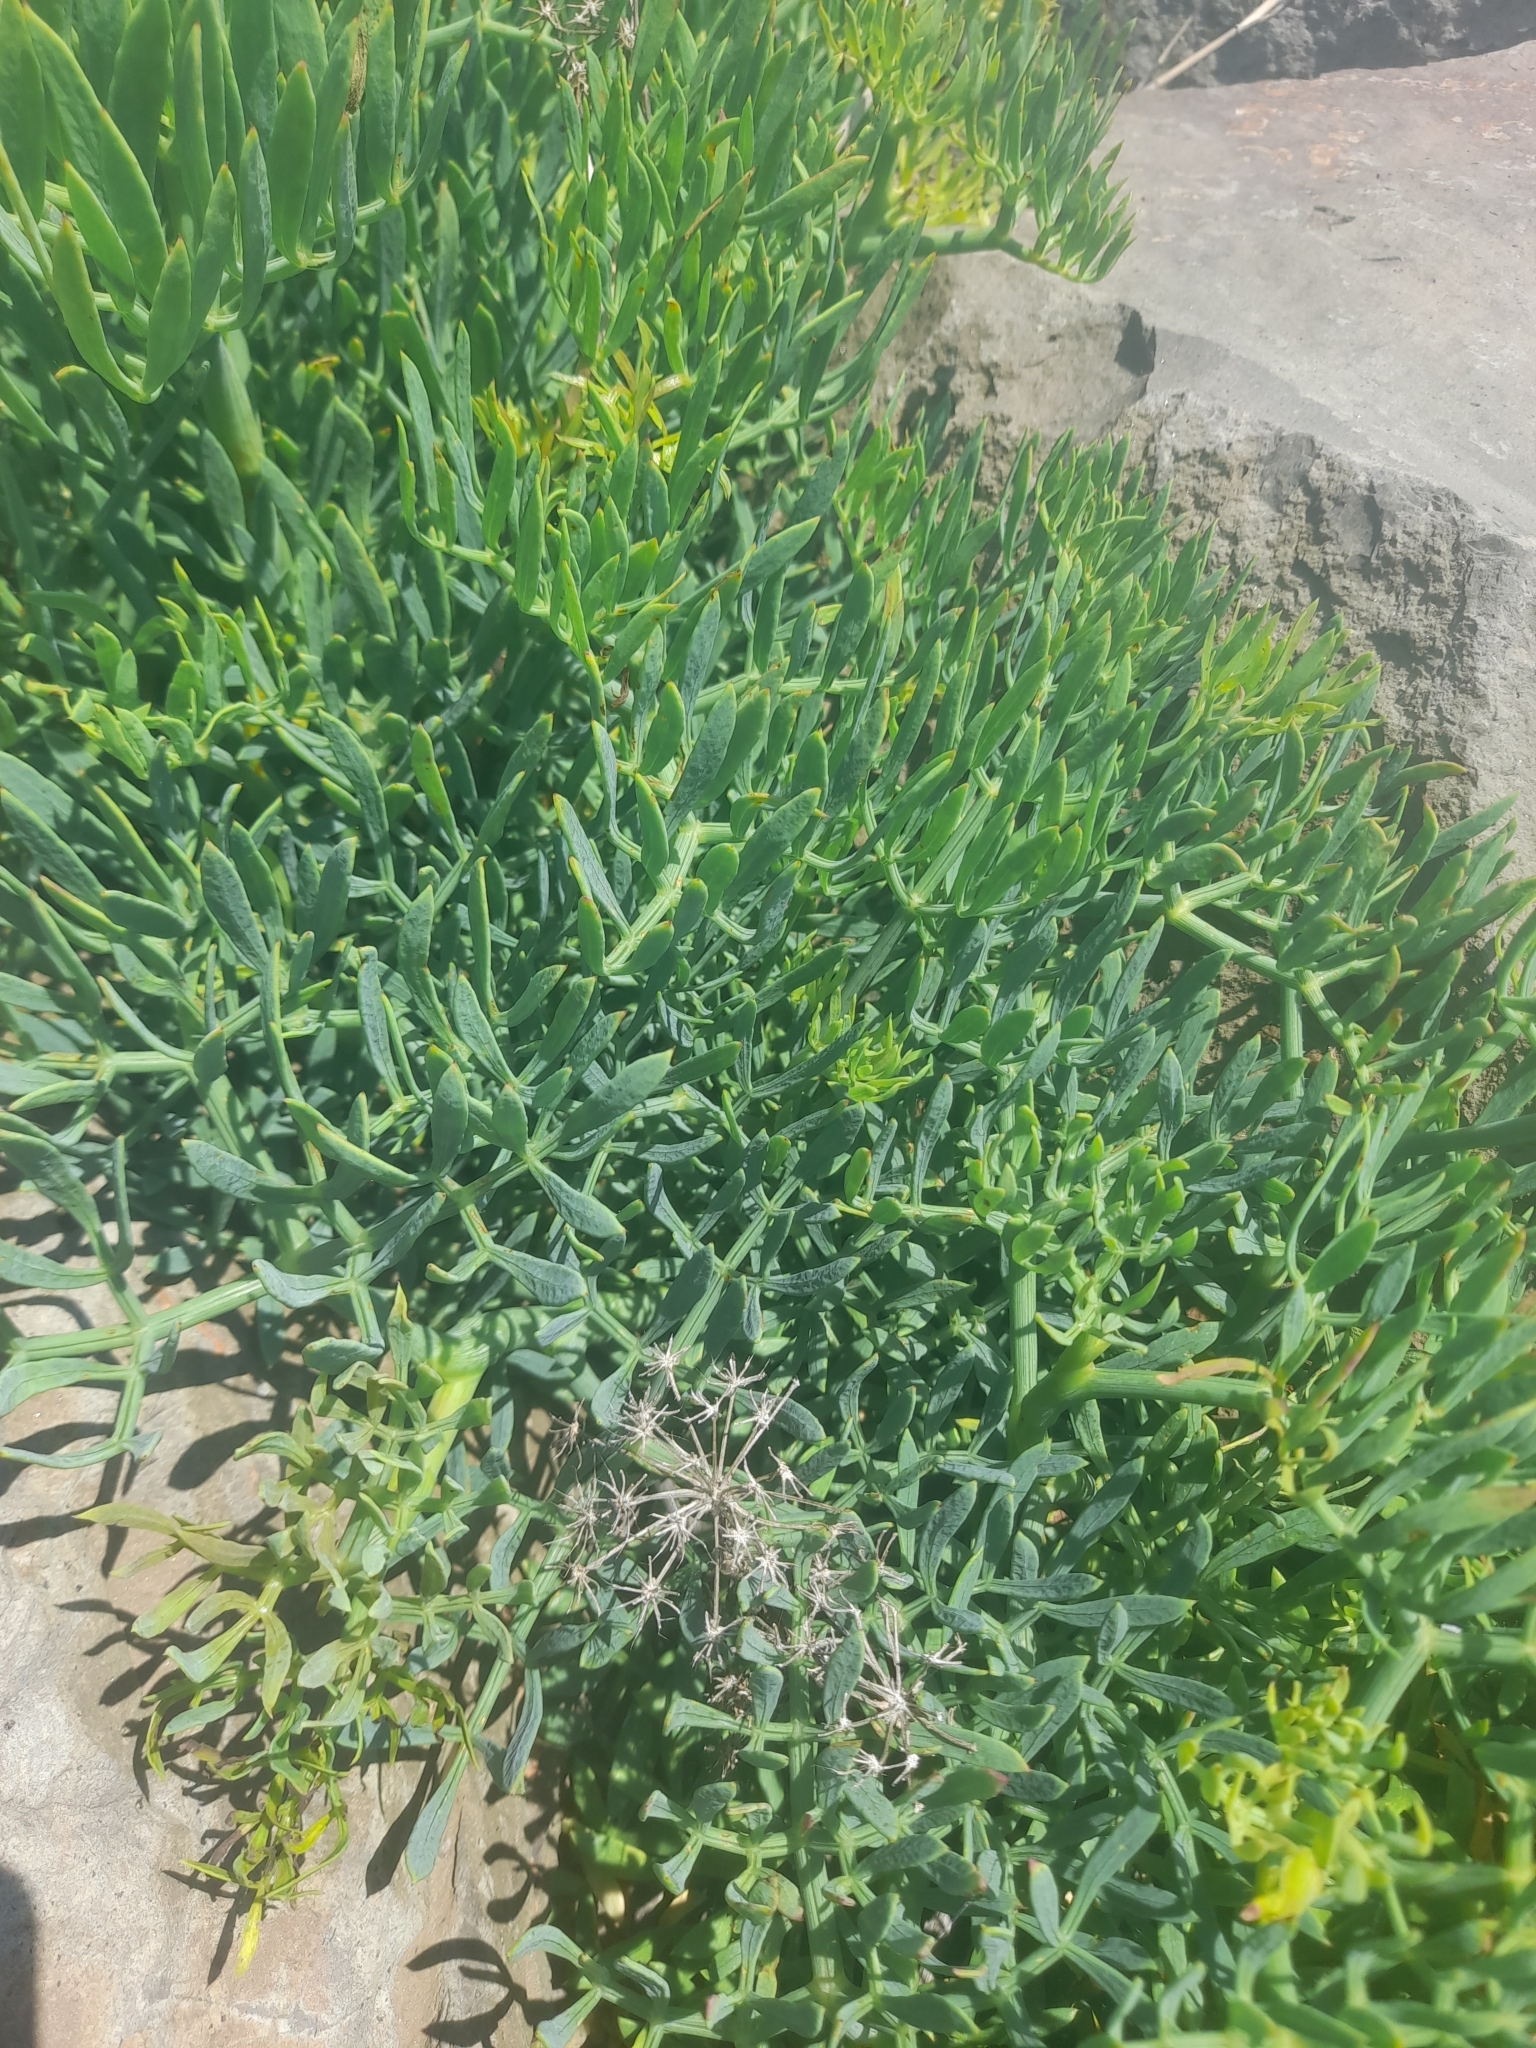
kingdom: Plantae
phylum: Tracheophyta
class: Magnoliopsida
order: Apiales
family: Apiaceae
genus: Crithmum
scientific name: Crithmum maritimum
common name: Rock samphire
